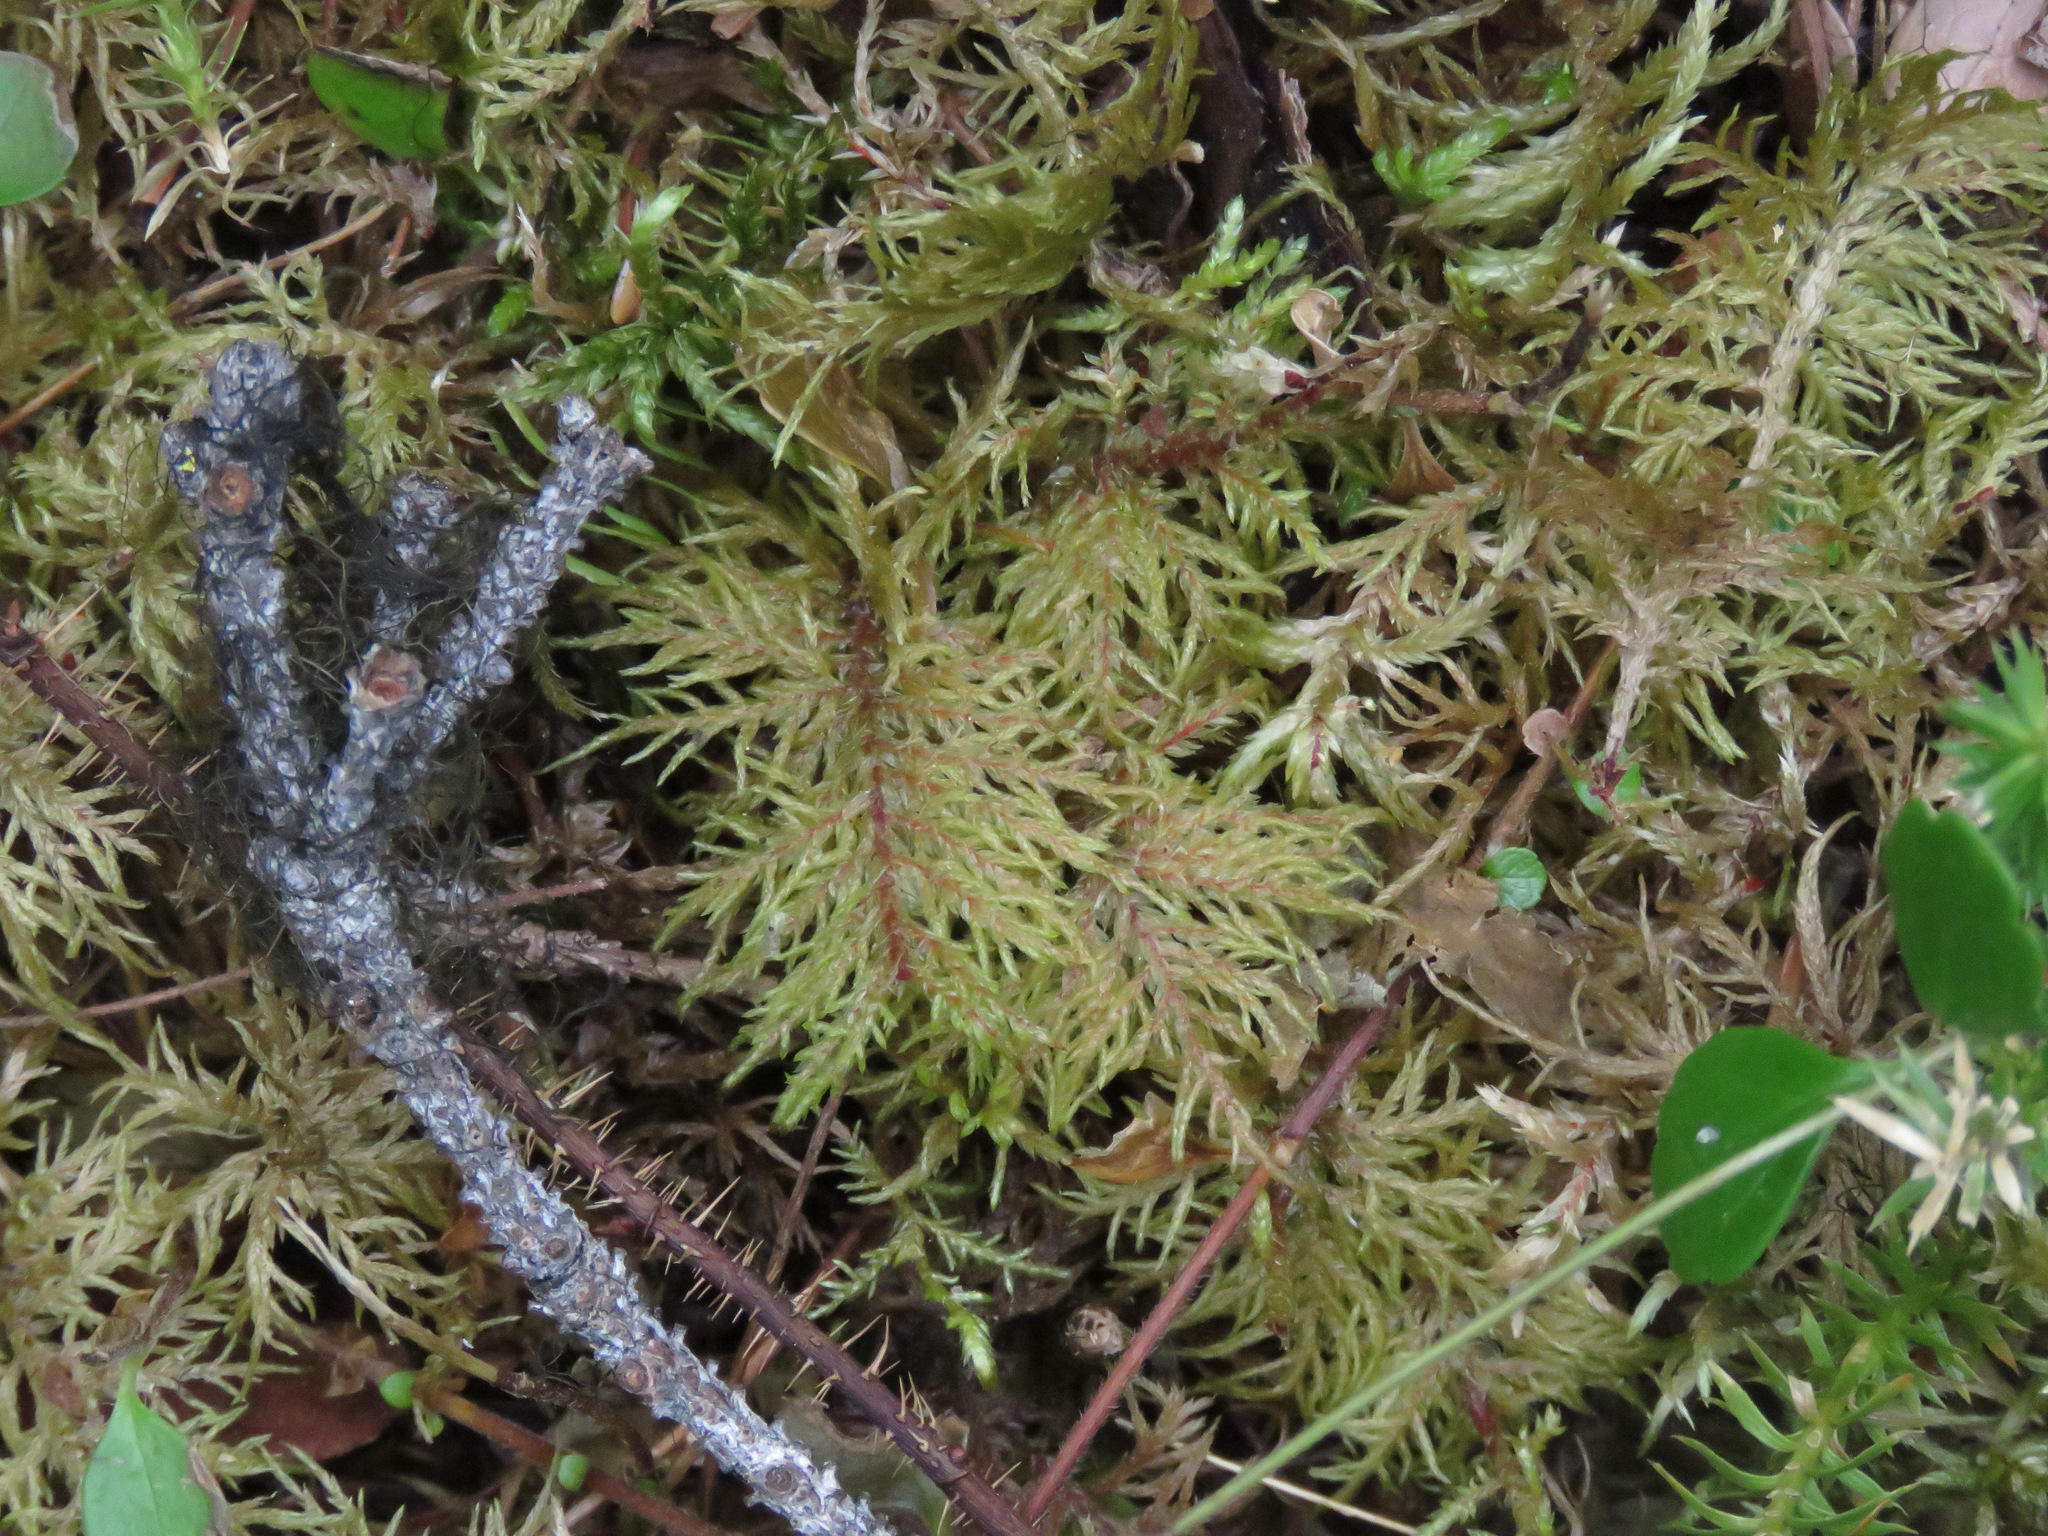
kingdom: Plantae
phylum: Bryophyta
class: Bryopsida
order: Hypnales
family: Hylocomiaceae
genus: Hylocomium
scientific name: Hylocomium splendens
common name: Stairstep moss
